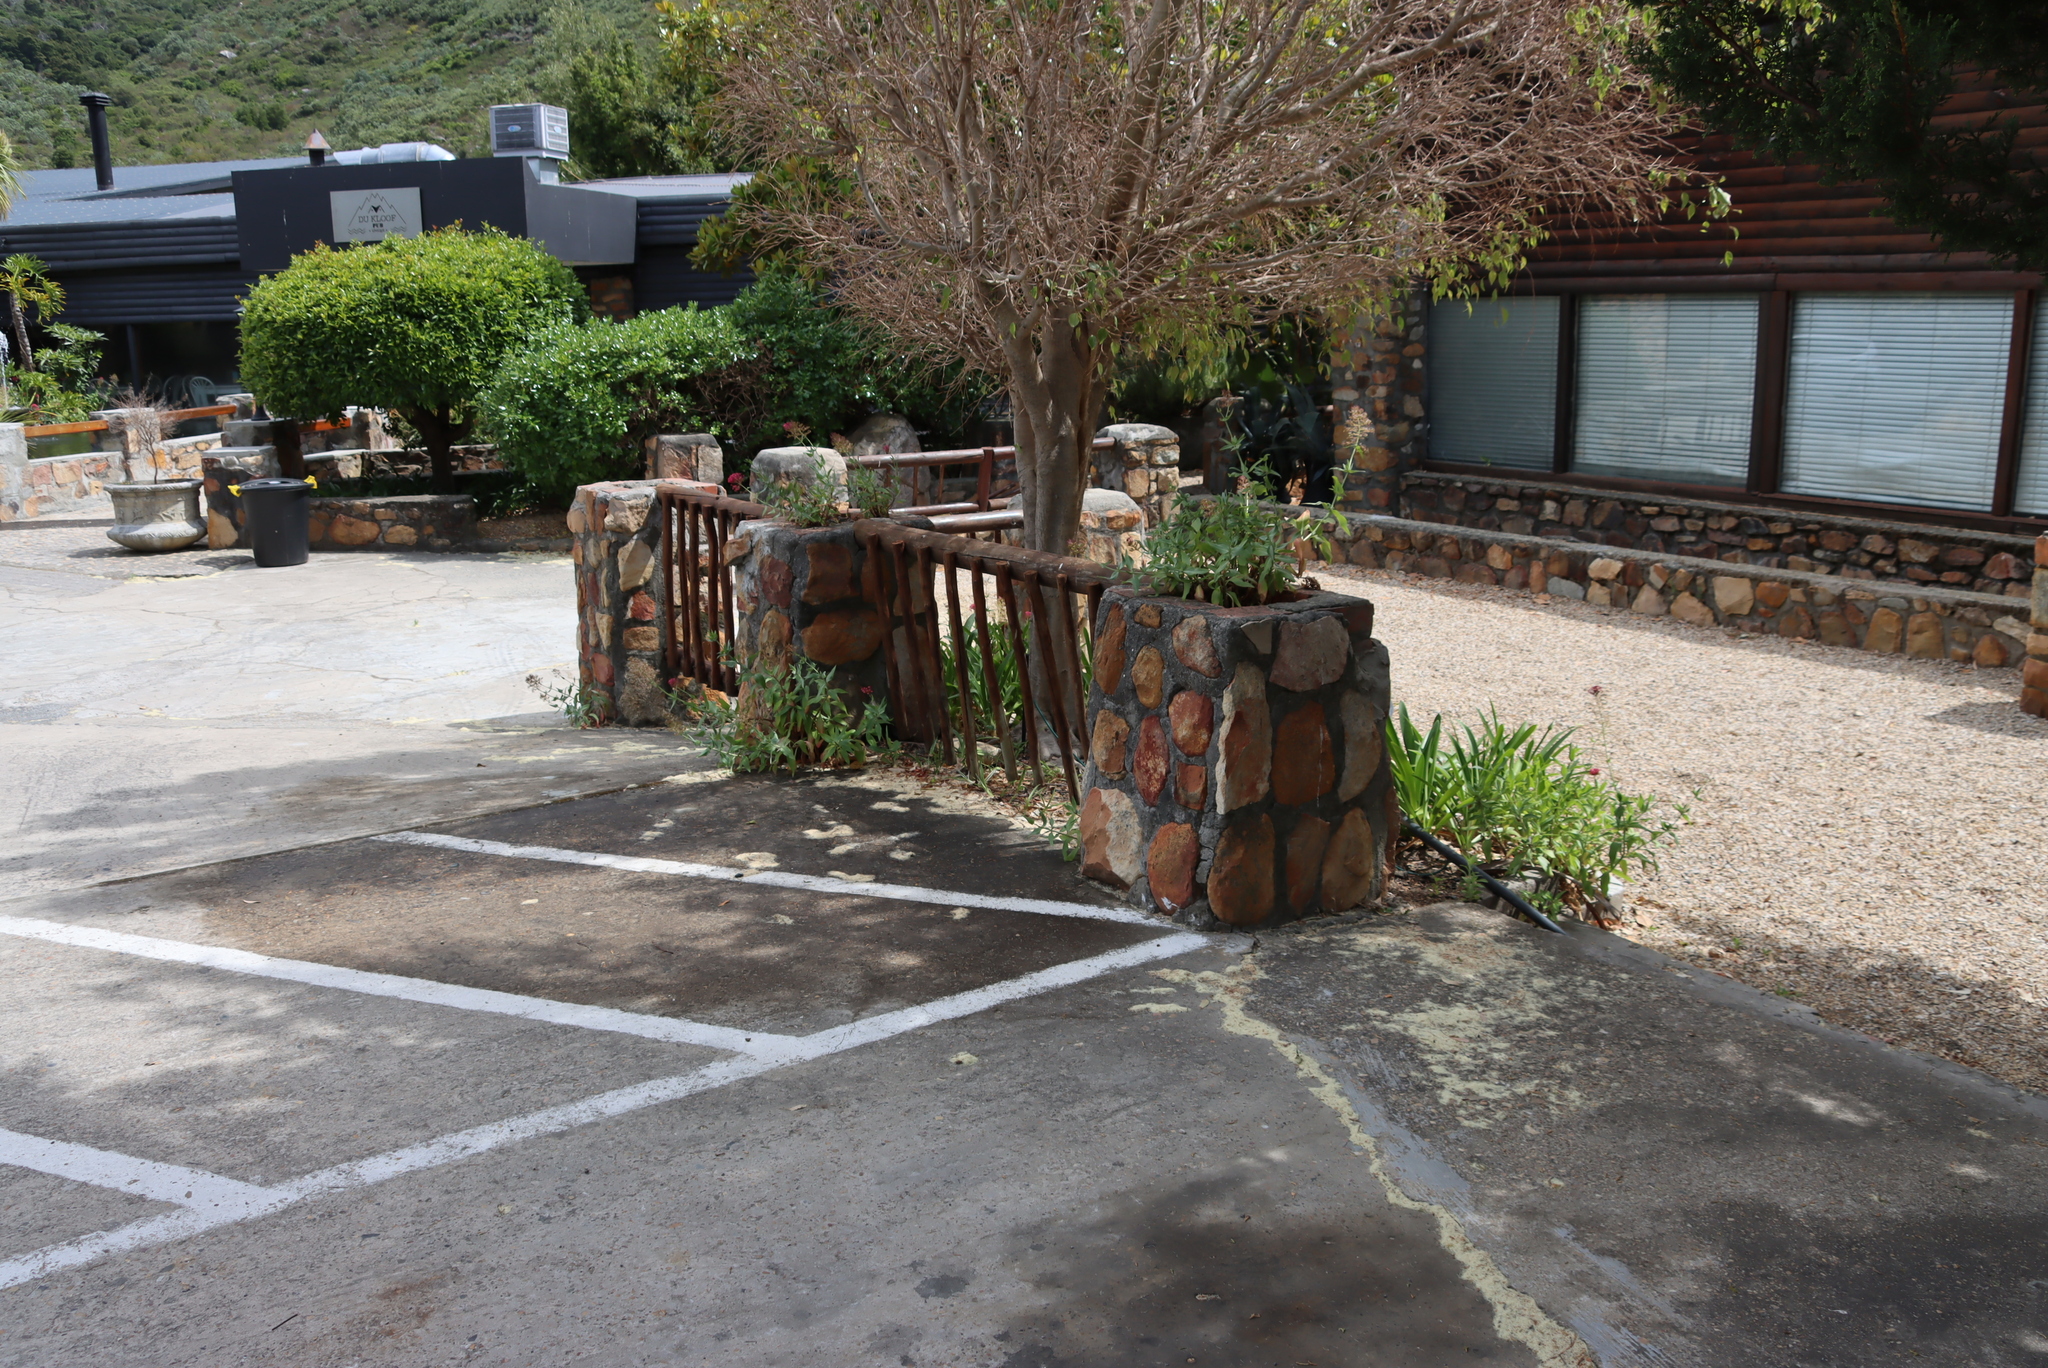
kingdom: Plantae
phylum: Tracheophyta
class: Magnoliopsida
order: Dipsacales
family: Caprifoliaceae
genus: Centranthus
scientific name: Centranthus ruber
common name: Red valerian
